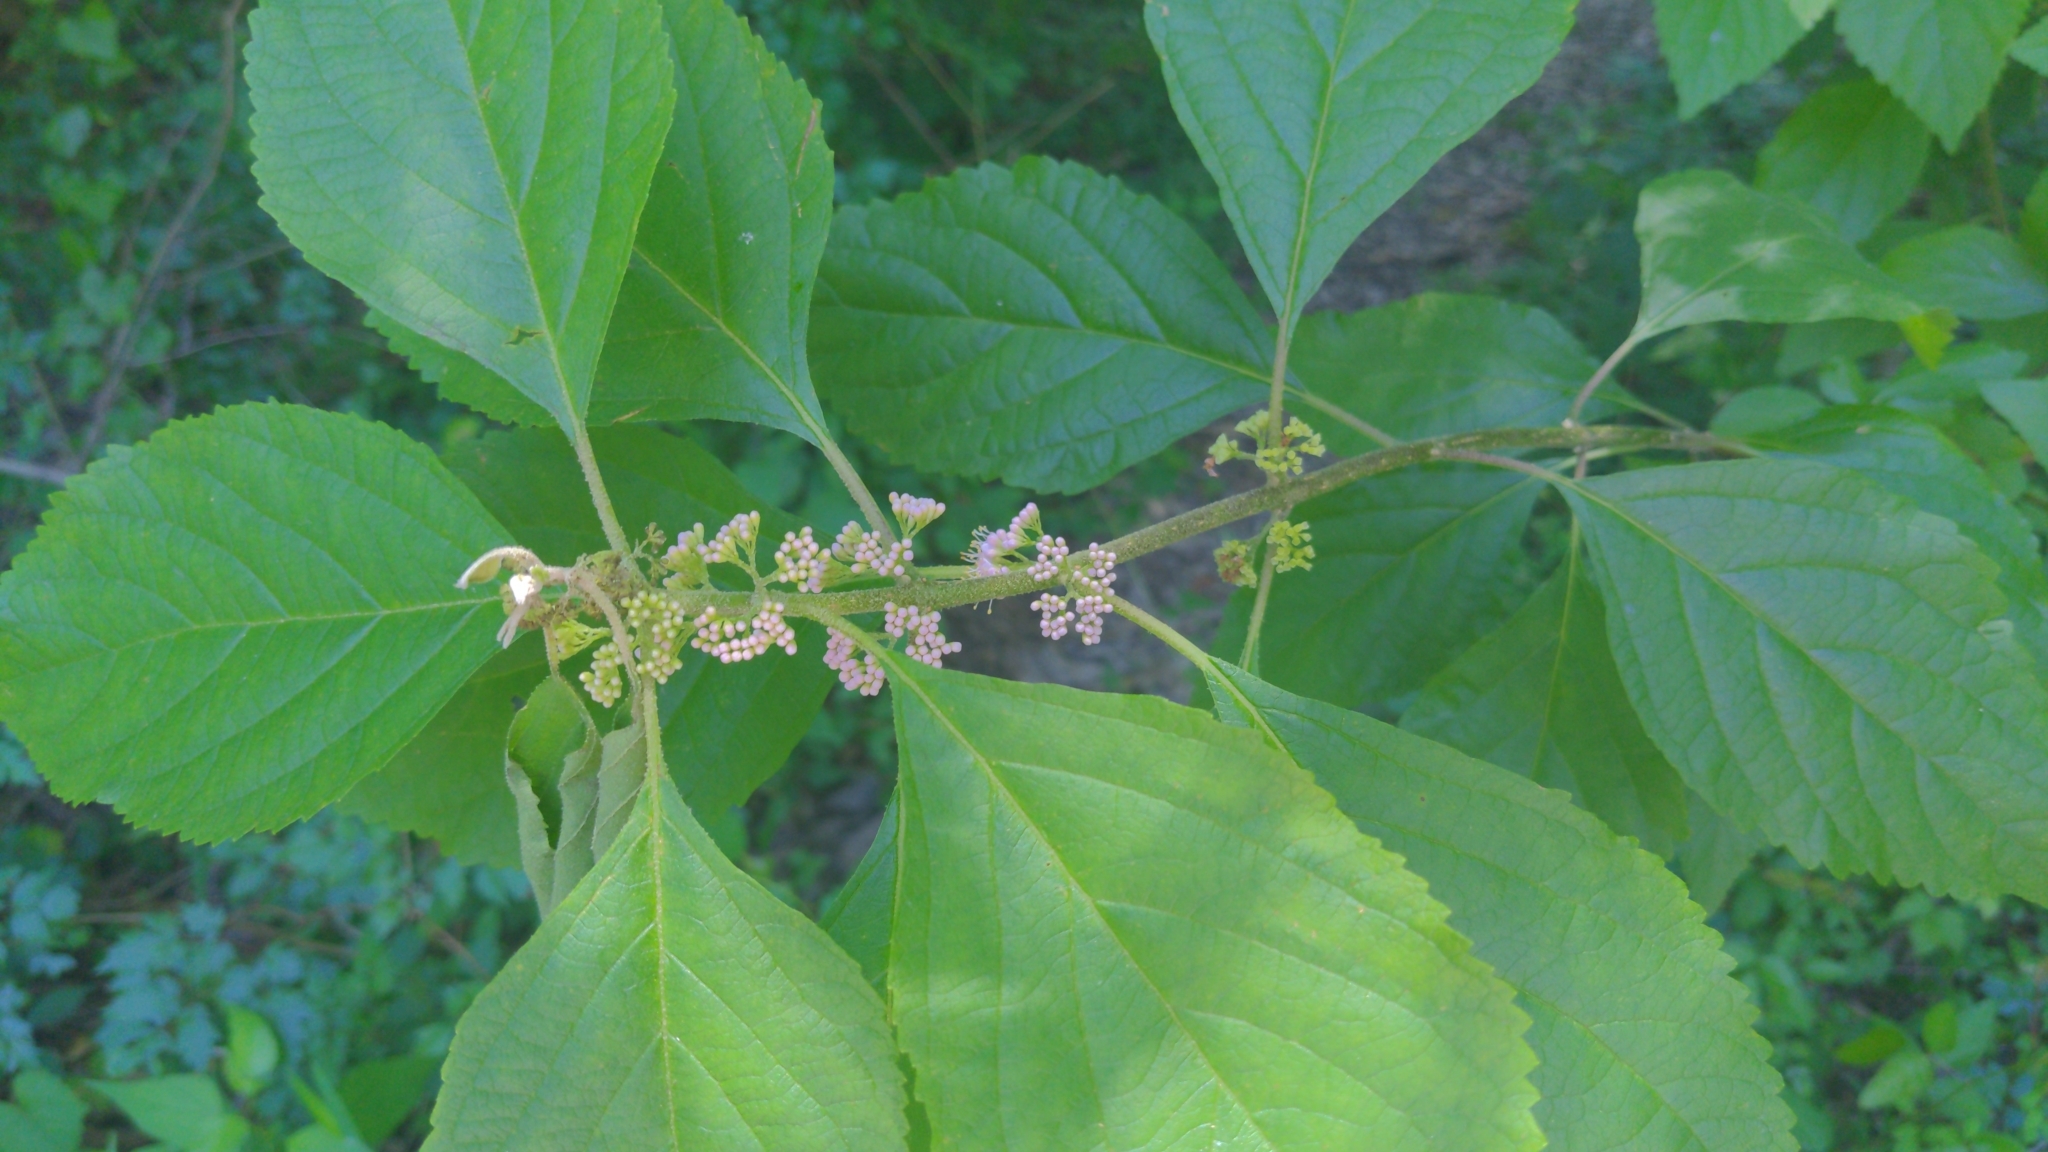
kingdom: Plantae
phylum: Tracheophyta
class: Magnoliopsida
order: Lamiales
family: Lamiaceae
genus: Callicarpa
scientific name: Callicarpa americana
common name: American beautyberry
